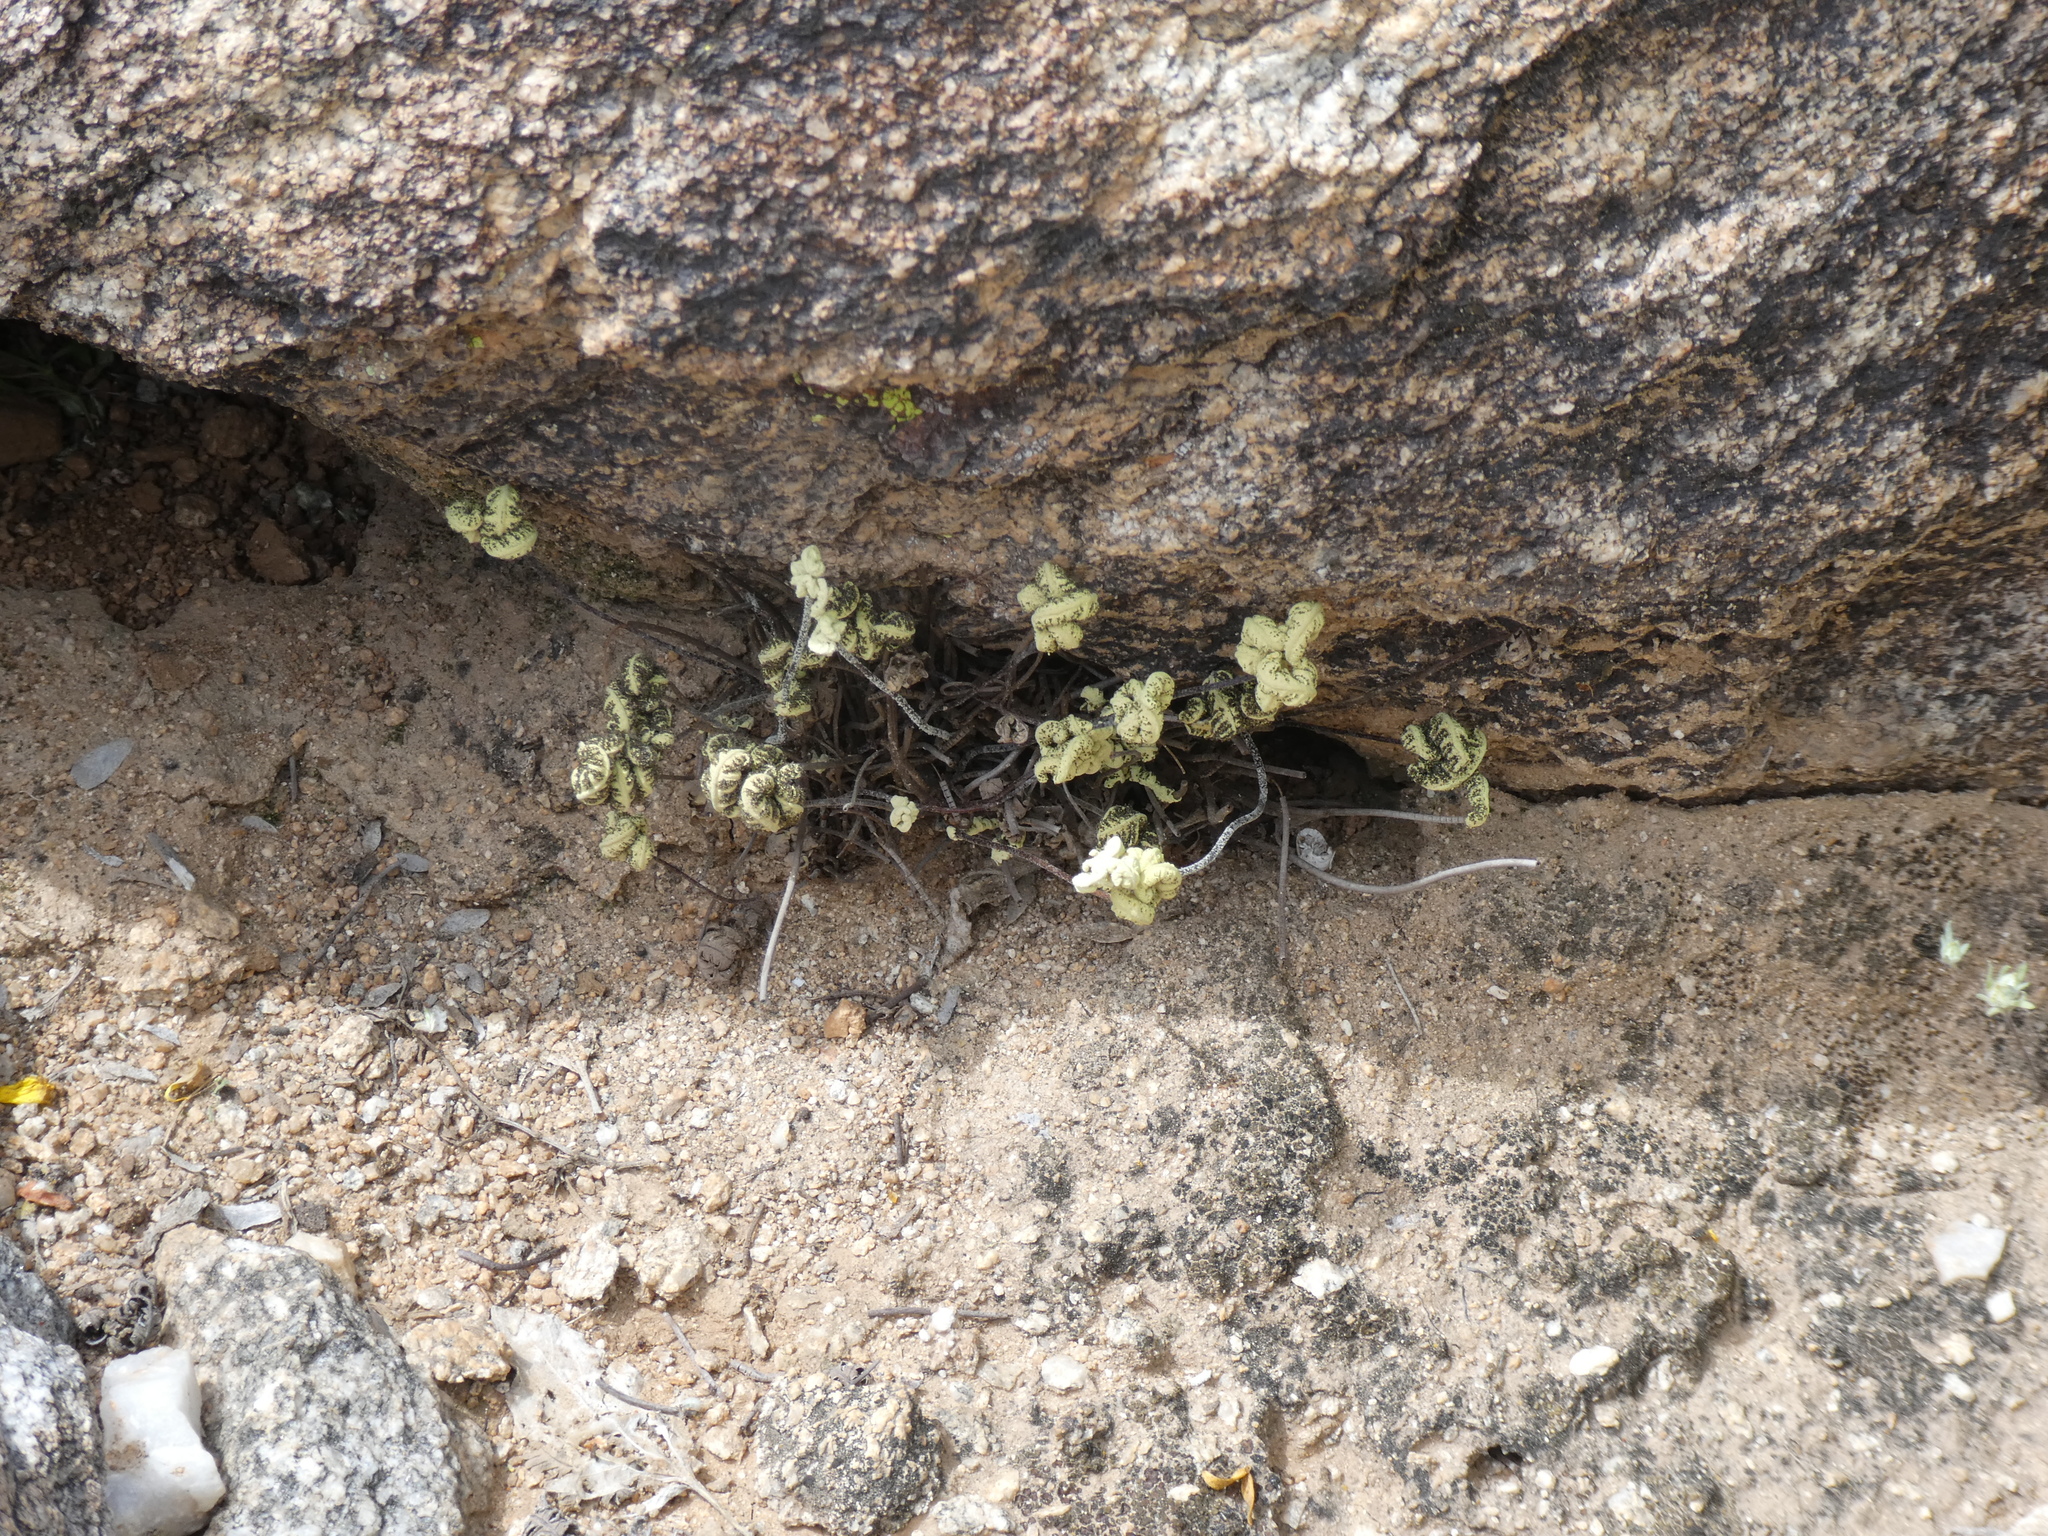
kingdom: Plantae
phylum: Tracheophyta
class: Polypodiopsida
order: Polypodiales
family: Pteridaceae
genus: Notholaena
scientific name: Notholaena standleyi
